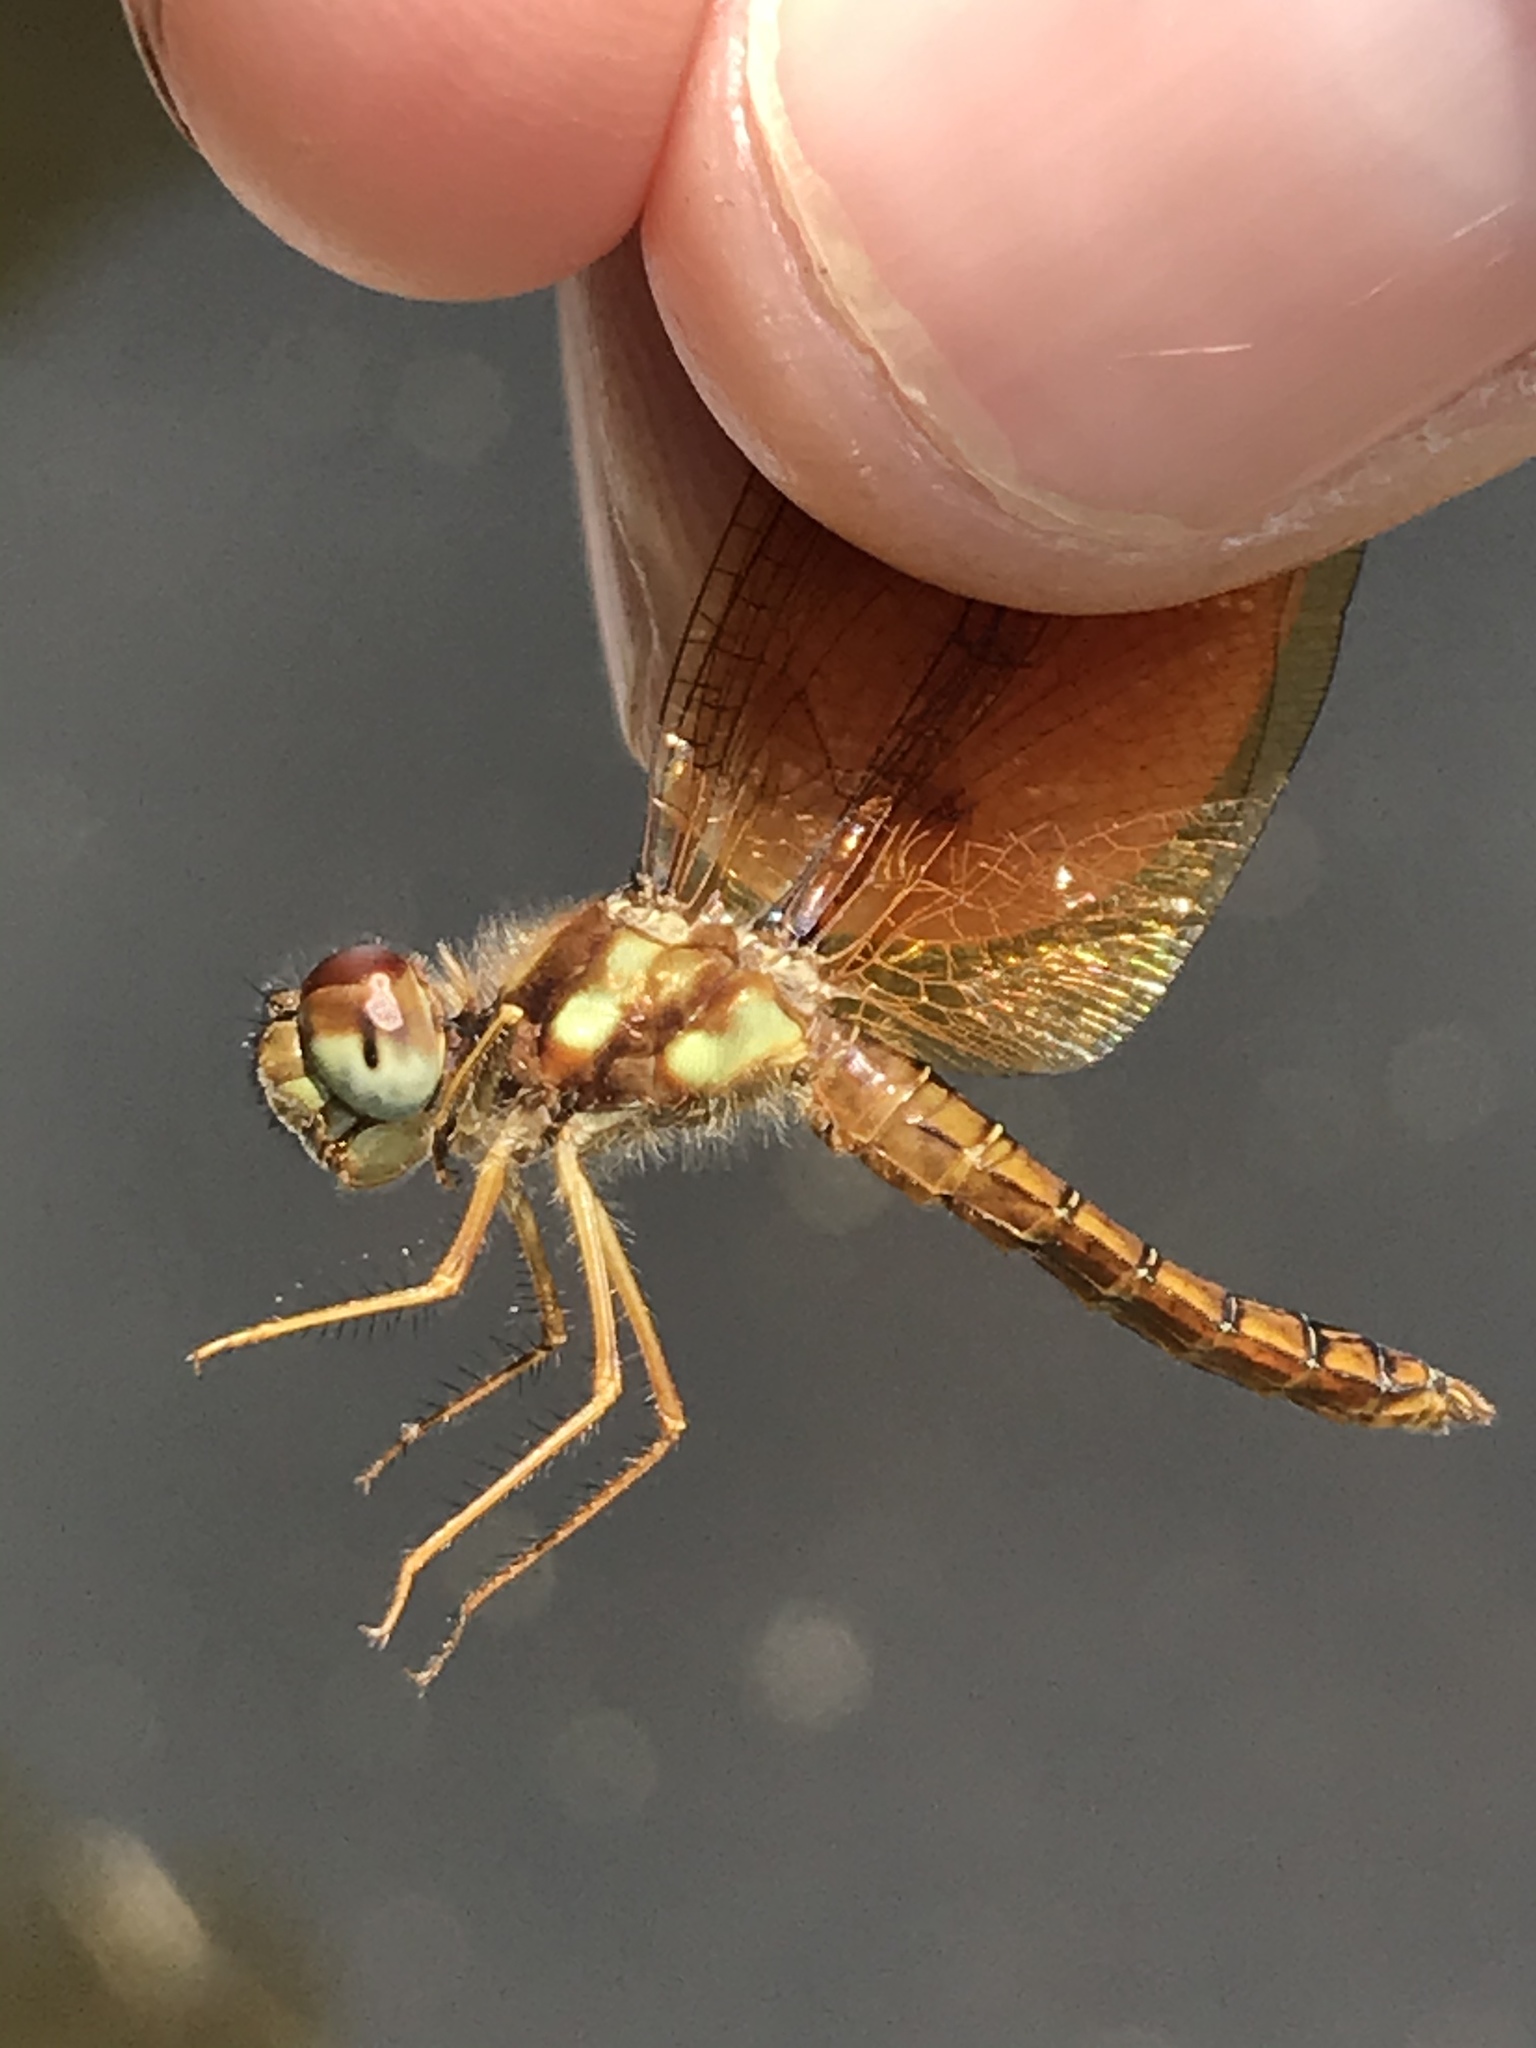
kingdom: Animalia
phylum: Arthropoda
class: Insecta
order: Odonata
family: Libellulidae
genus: Perithemis
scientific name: Perithemis tenera
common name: Eastern amberwing
